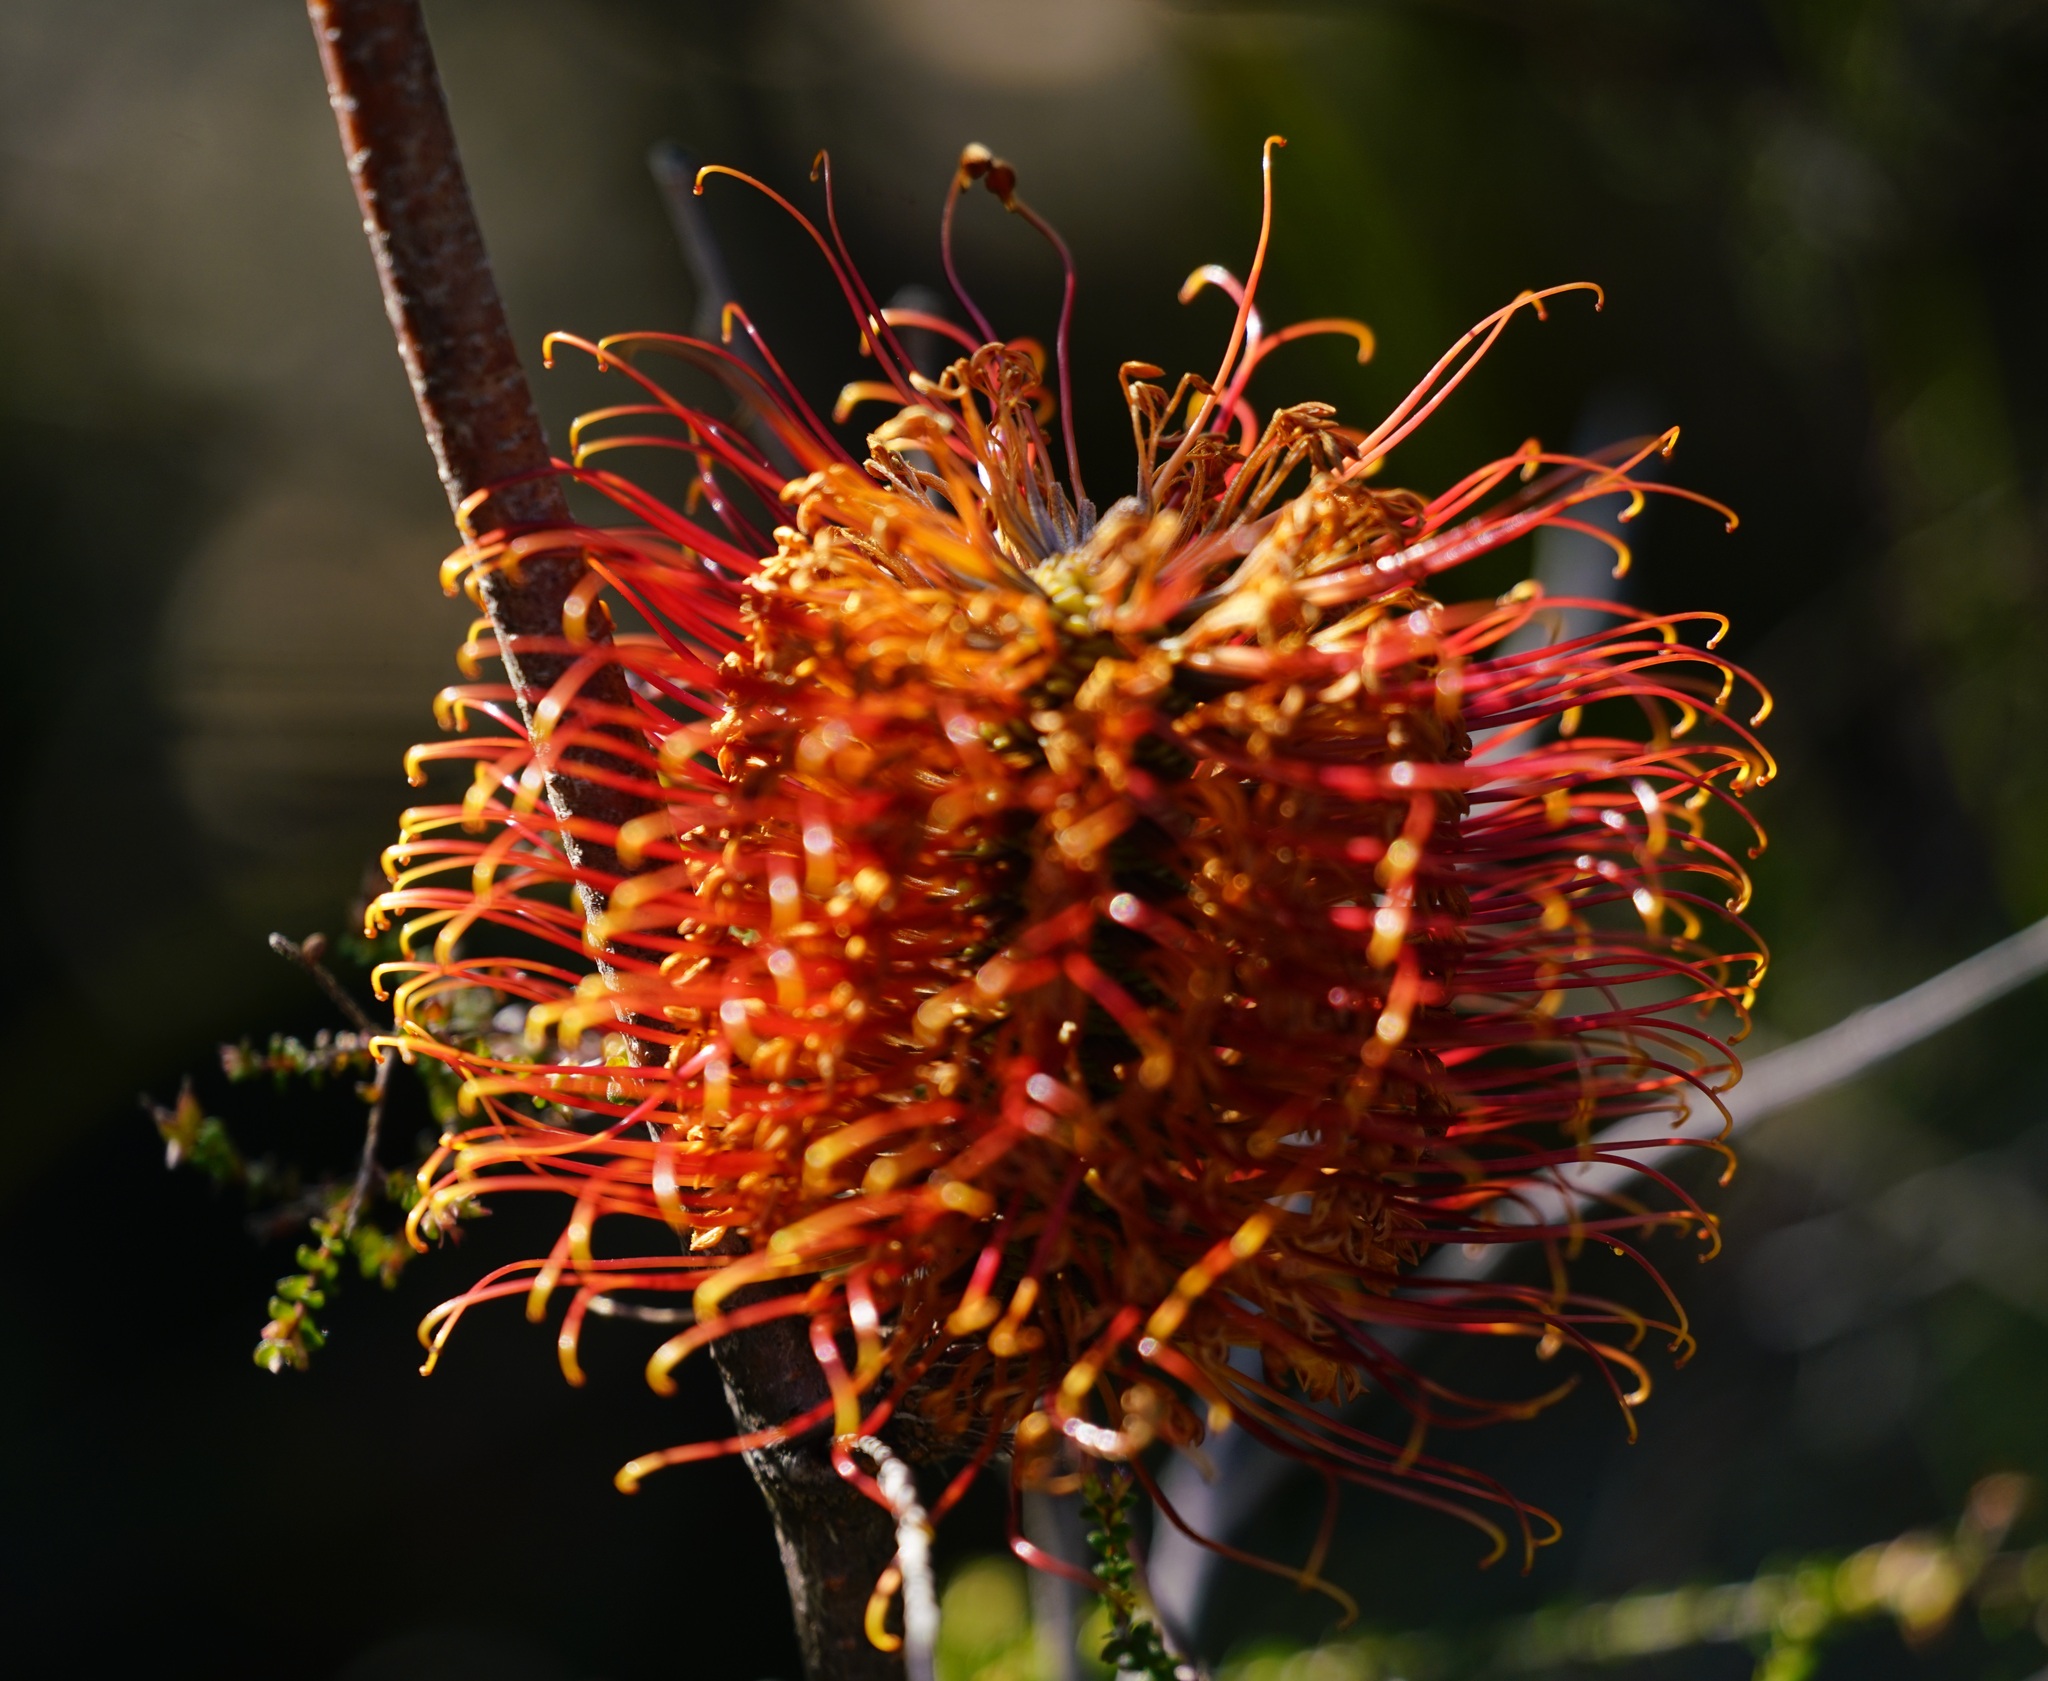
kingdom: Plantae
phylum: Tracheophyta
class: Magnoliopsida
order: Proteales
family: Proteaceae
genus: Banksia
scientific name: Banksia ericifolia
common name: Heath-leaf banksia
